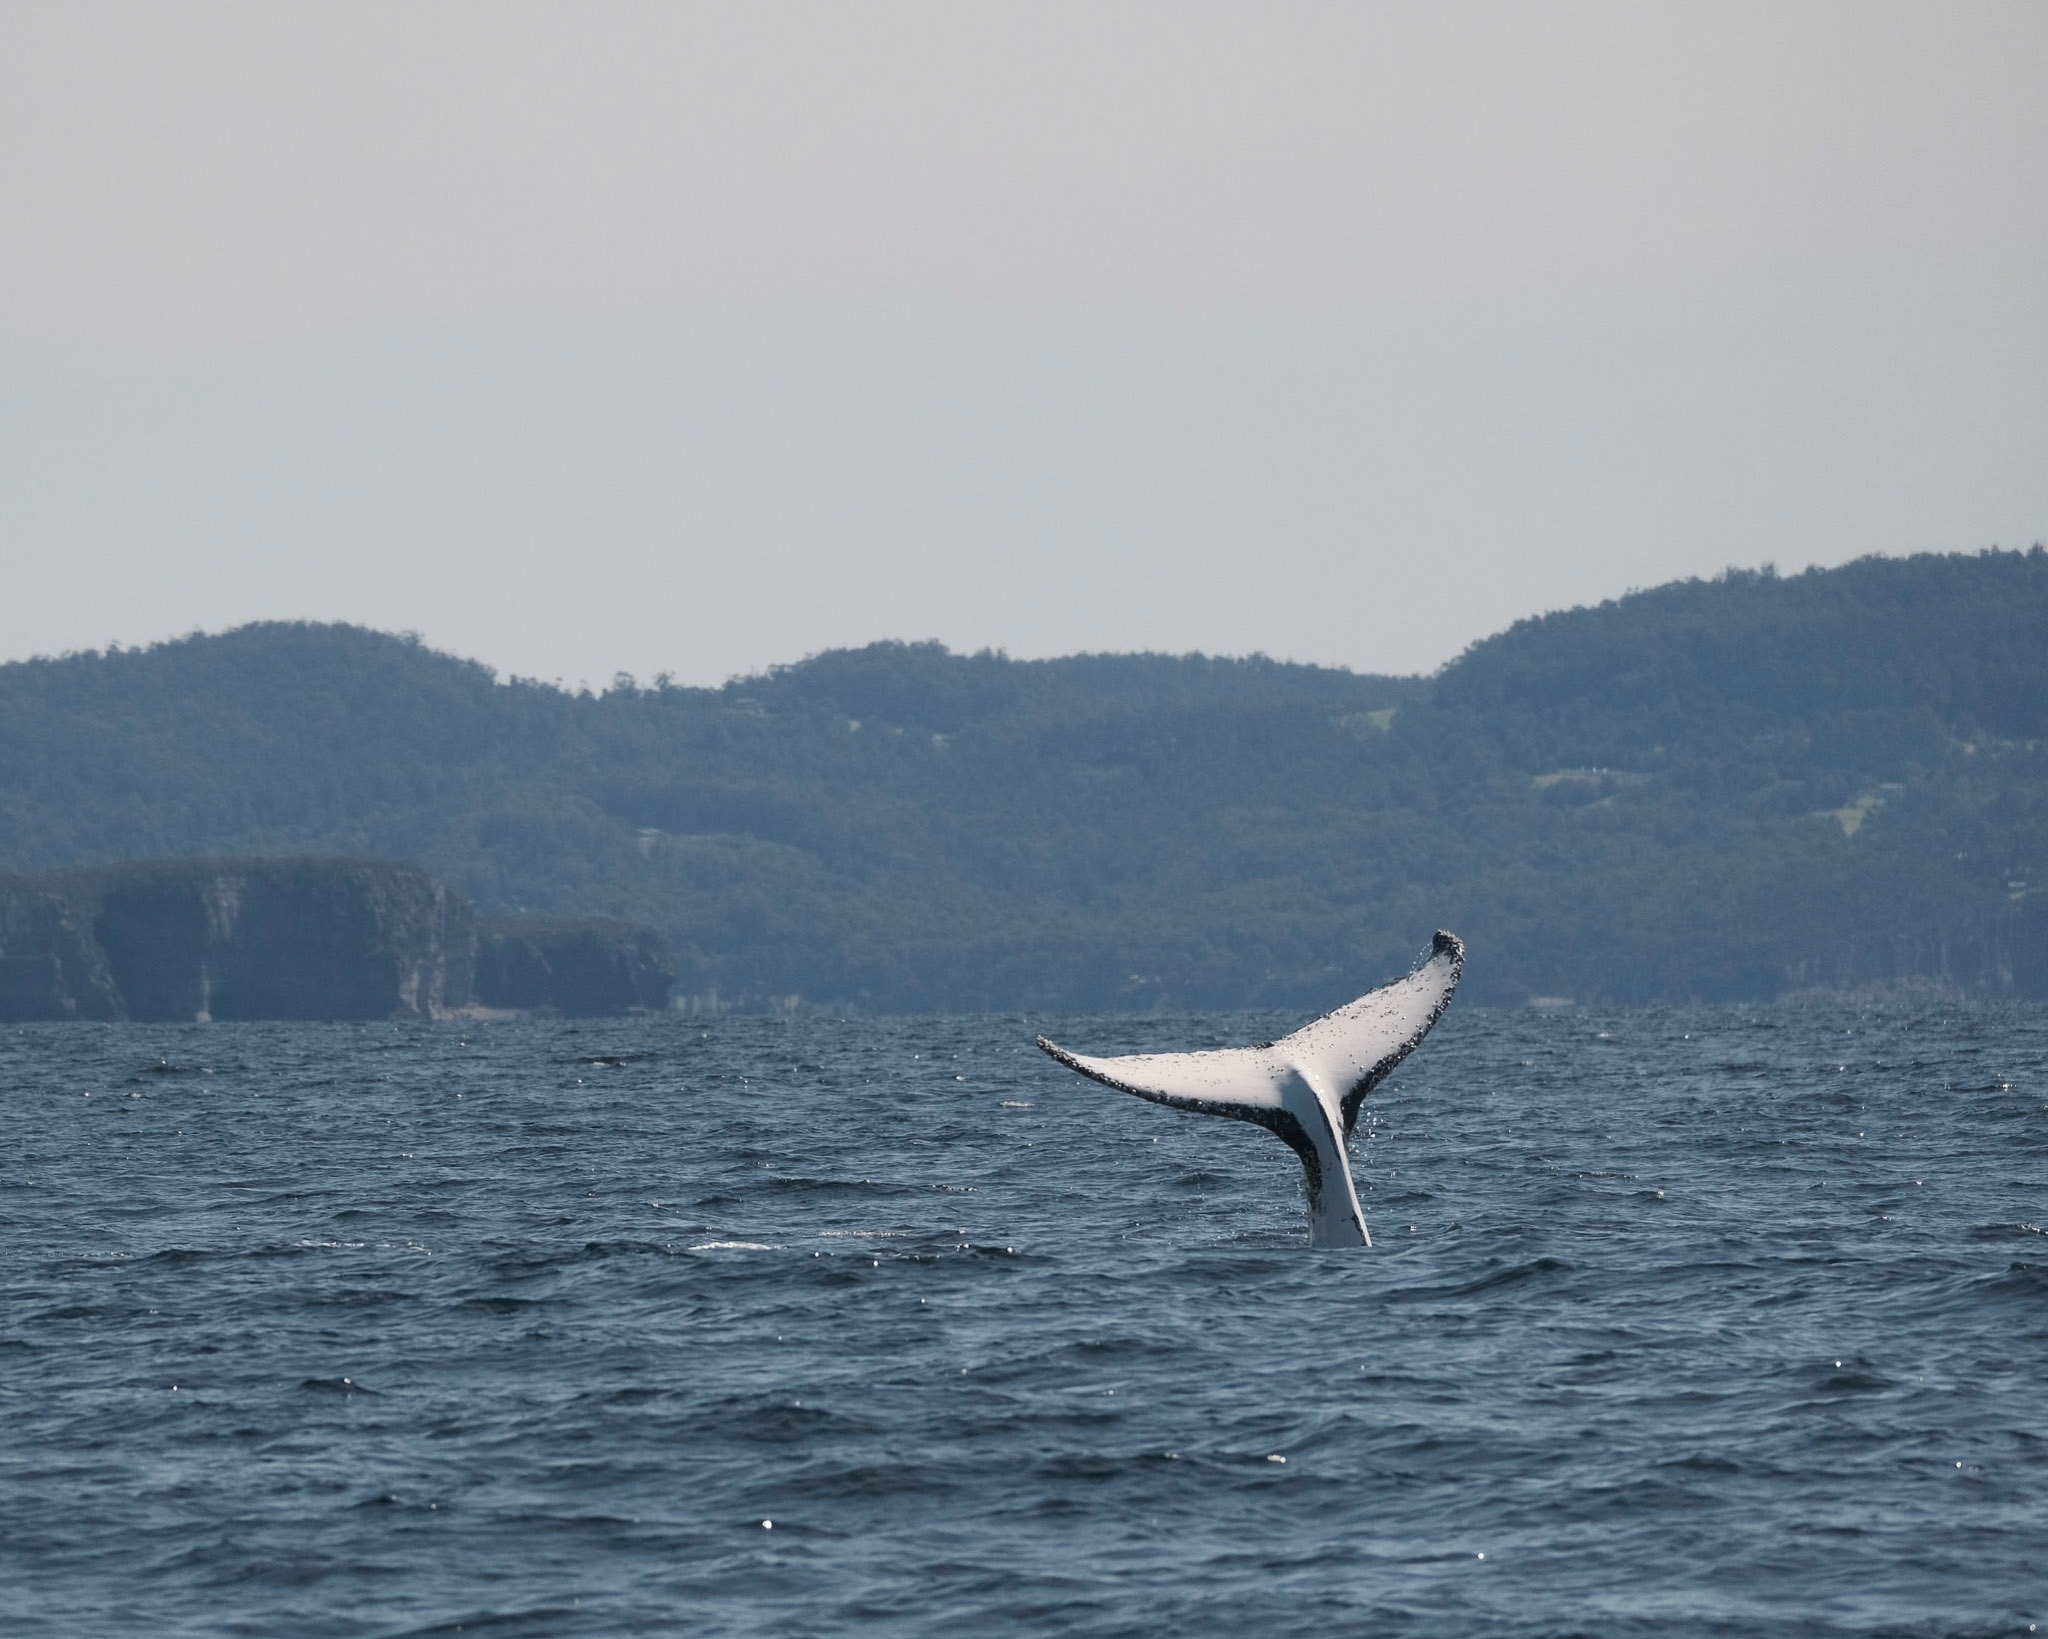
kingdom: Animalia
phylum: Chordata
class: Mammalia
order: Cetacea
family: Balaenopteridae
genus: Megaptera
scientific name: Megaptera novaeangliae
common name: Humpback whale
